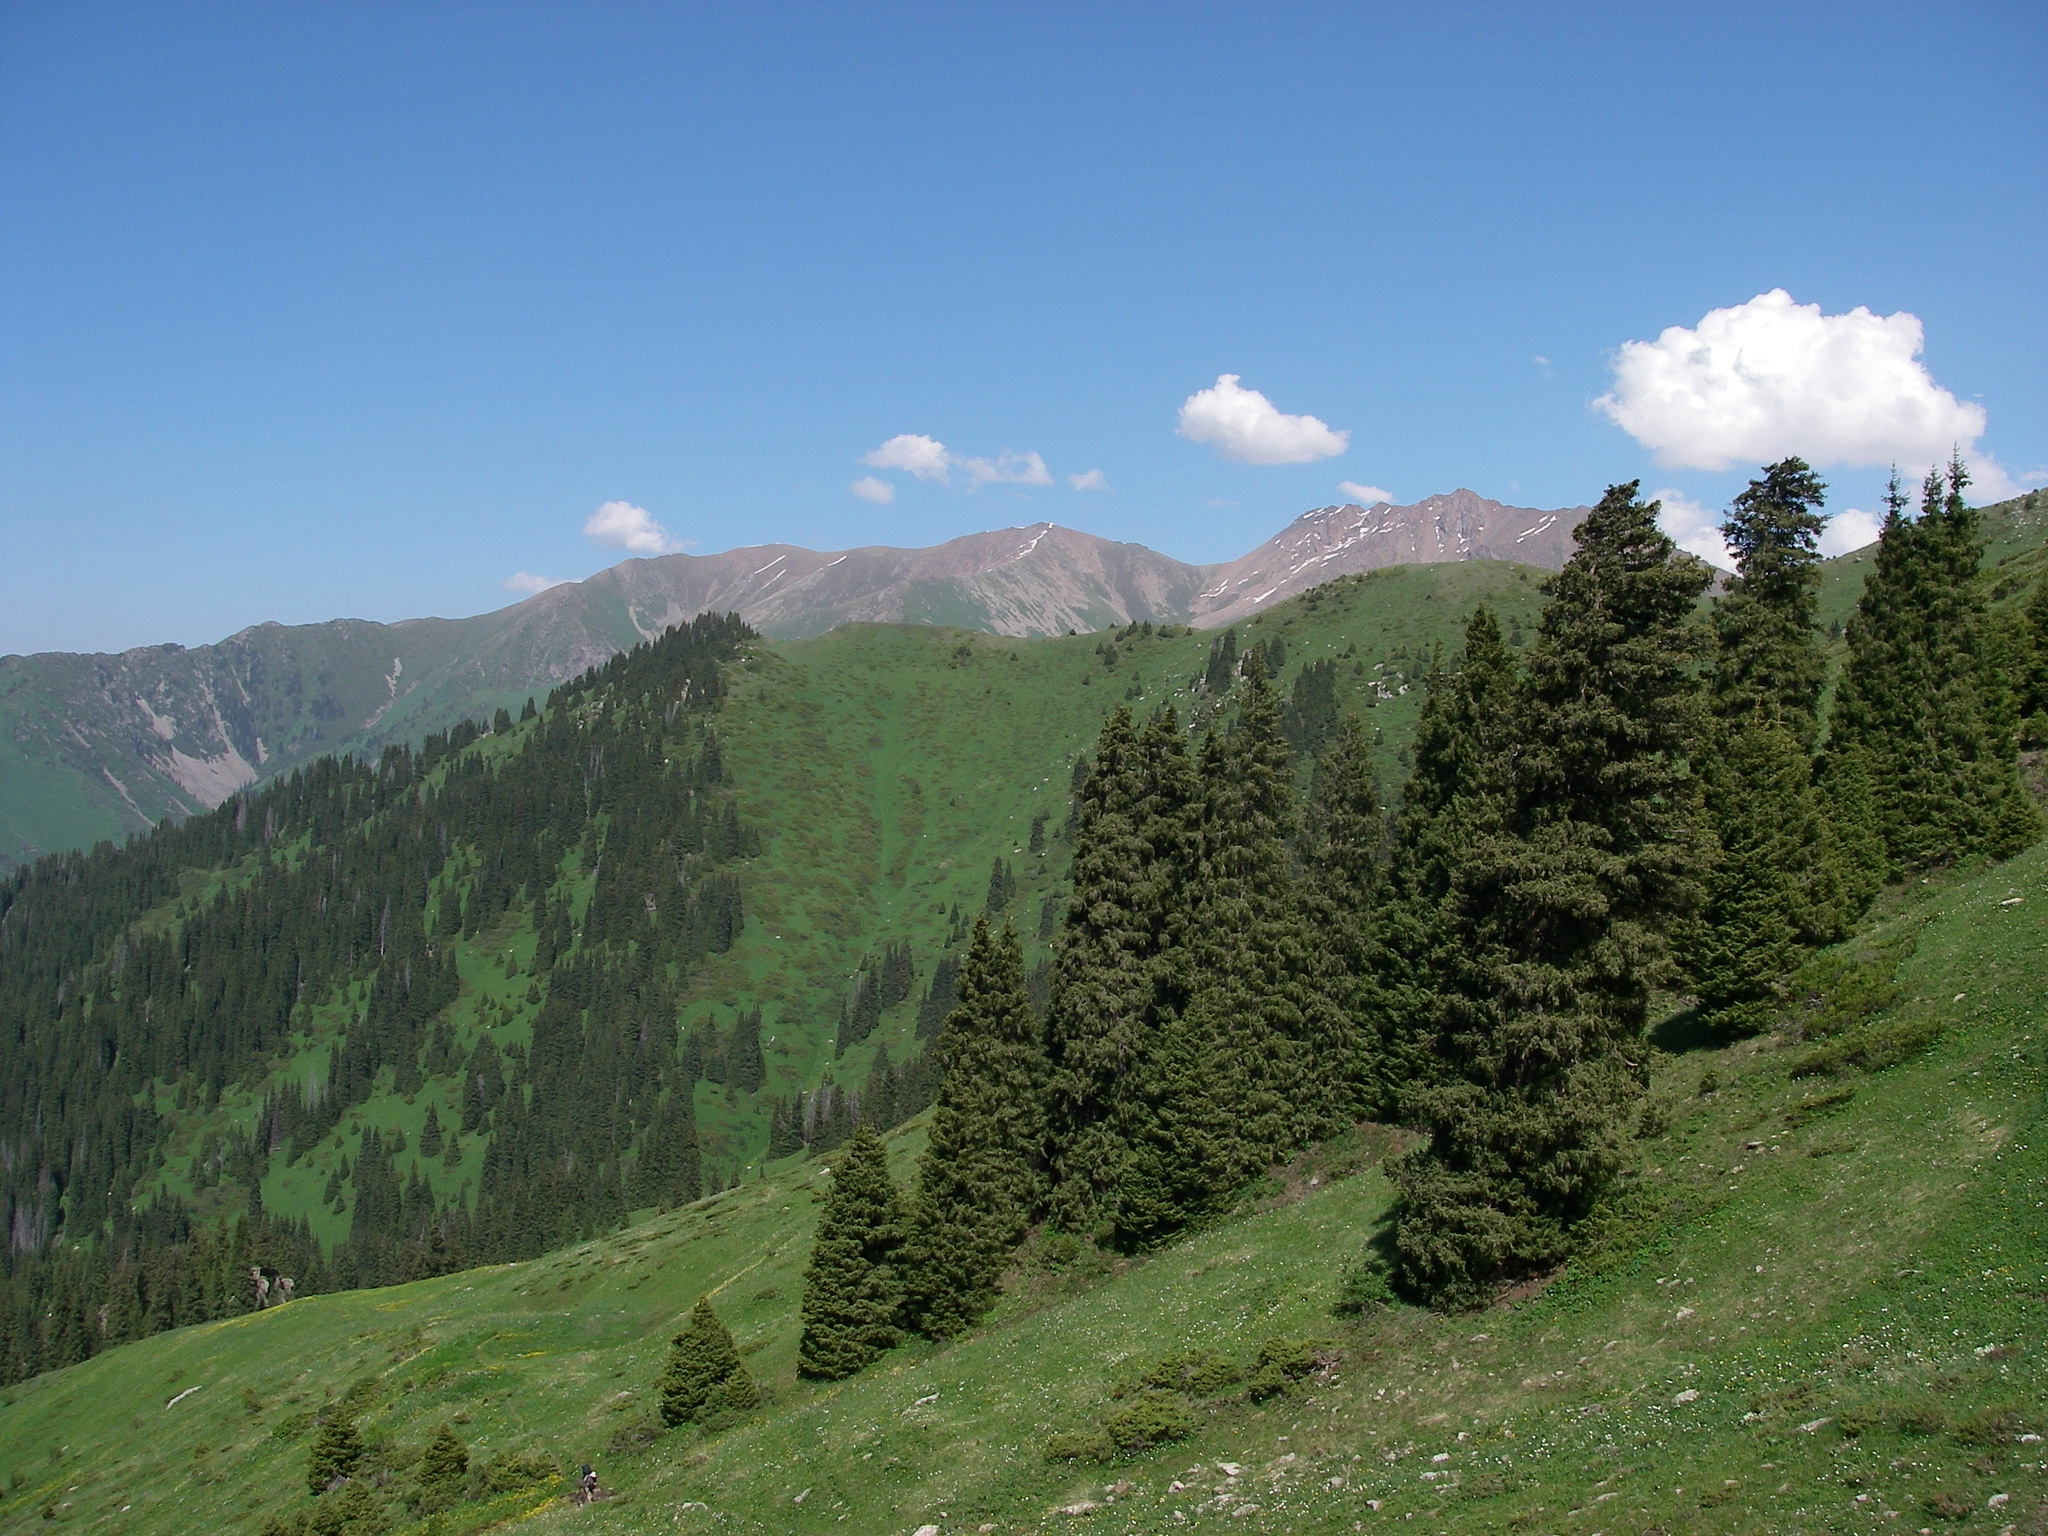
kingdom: Plantae
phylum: Tracheophyta
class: Pinopsida
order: Pinales
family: Pinaceae
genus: Picea
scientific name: Picea schrenkiana
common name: Asian spruce
